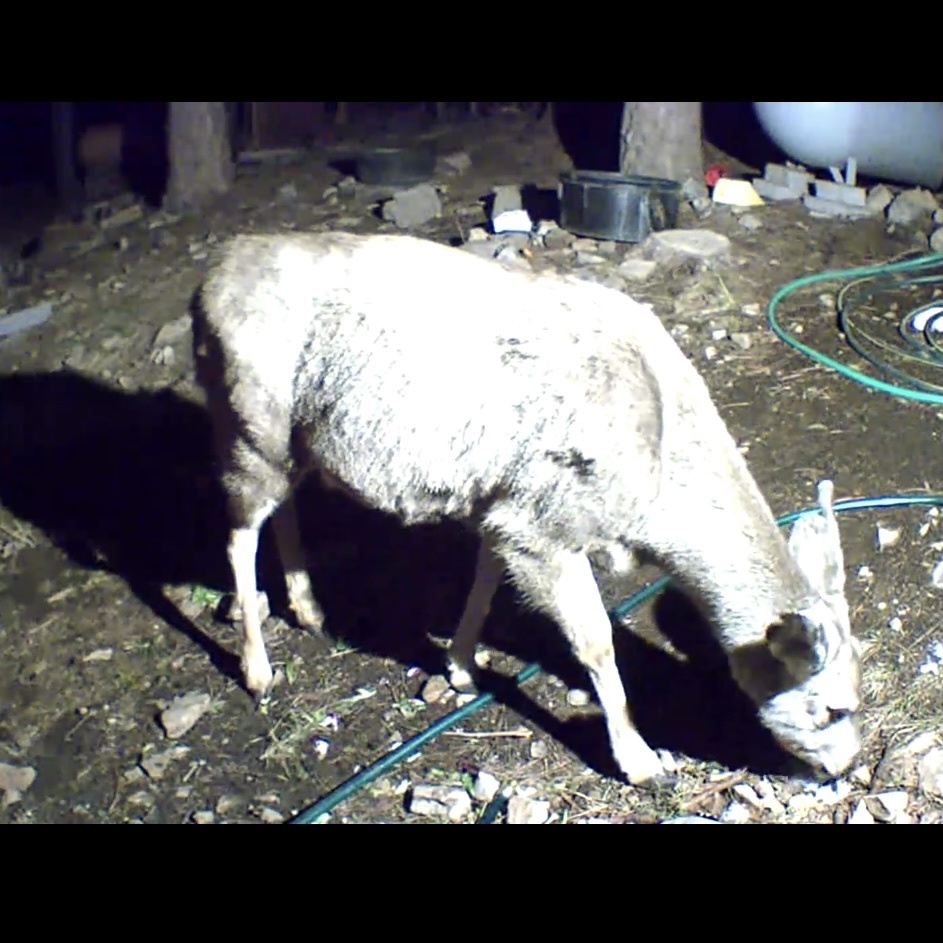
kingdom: Animalia
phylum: Chordata
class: Mammalia
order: Artiodactyla
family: Cervidae
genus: Odocoileus
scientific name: Odocoileus hemionus
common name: Mule deer
